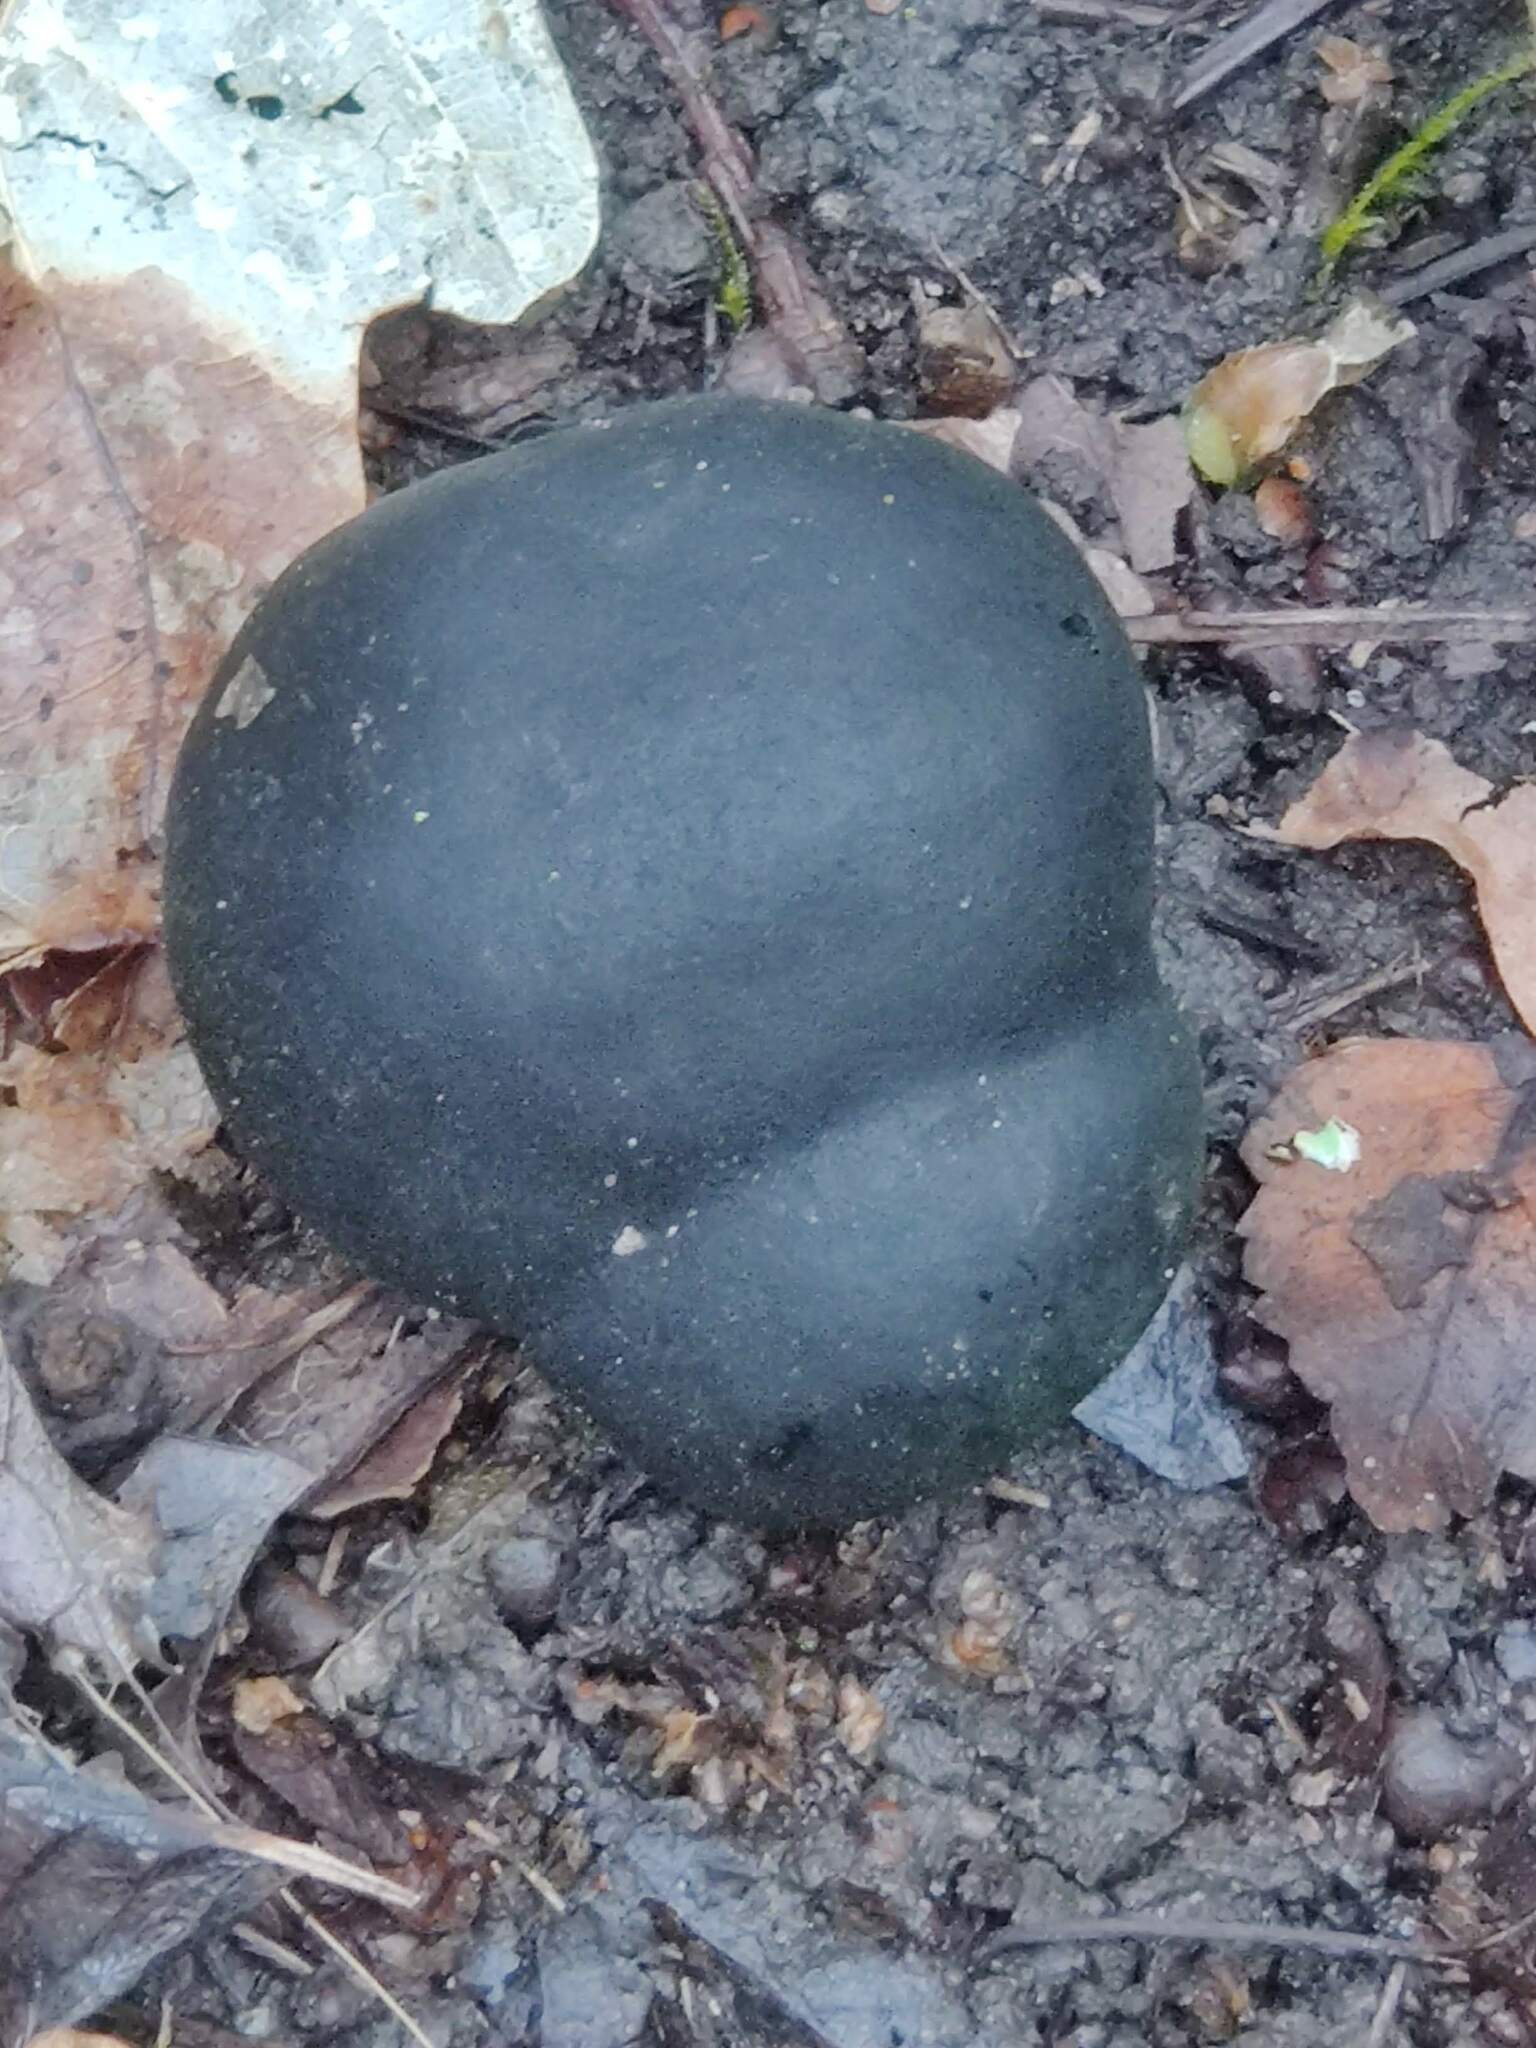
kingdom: Fungi
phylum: Ascomycota
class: Sordariomycetes
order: Xylariales
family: Hypoxylaceae
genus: Daldinia
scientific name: Daldinia concentrica
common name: Cramp balls
